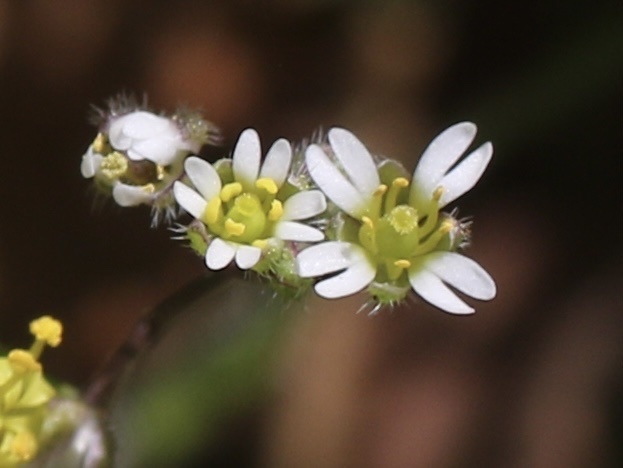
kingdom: Plantae
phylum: Tracheophyta
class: Magnoliopsida
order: Brassicales
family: Brassicaceae
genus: Draba
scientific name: Draba verna
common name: Spring draba
